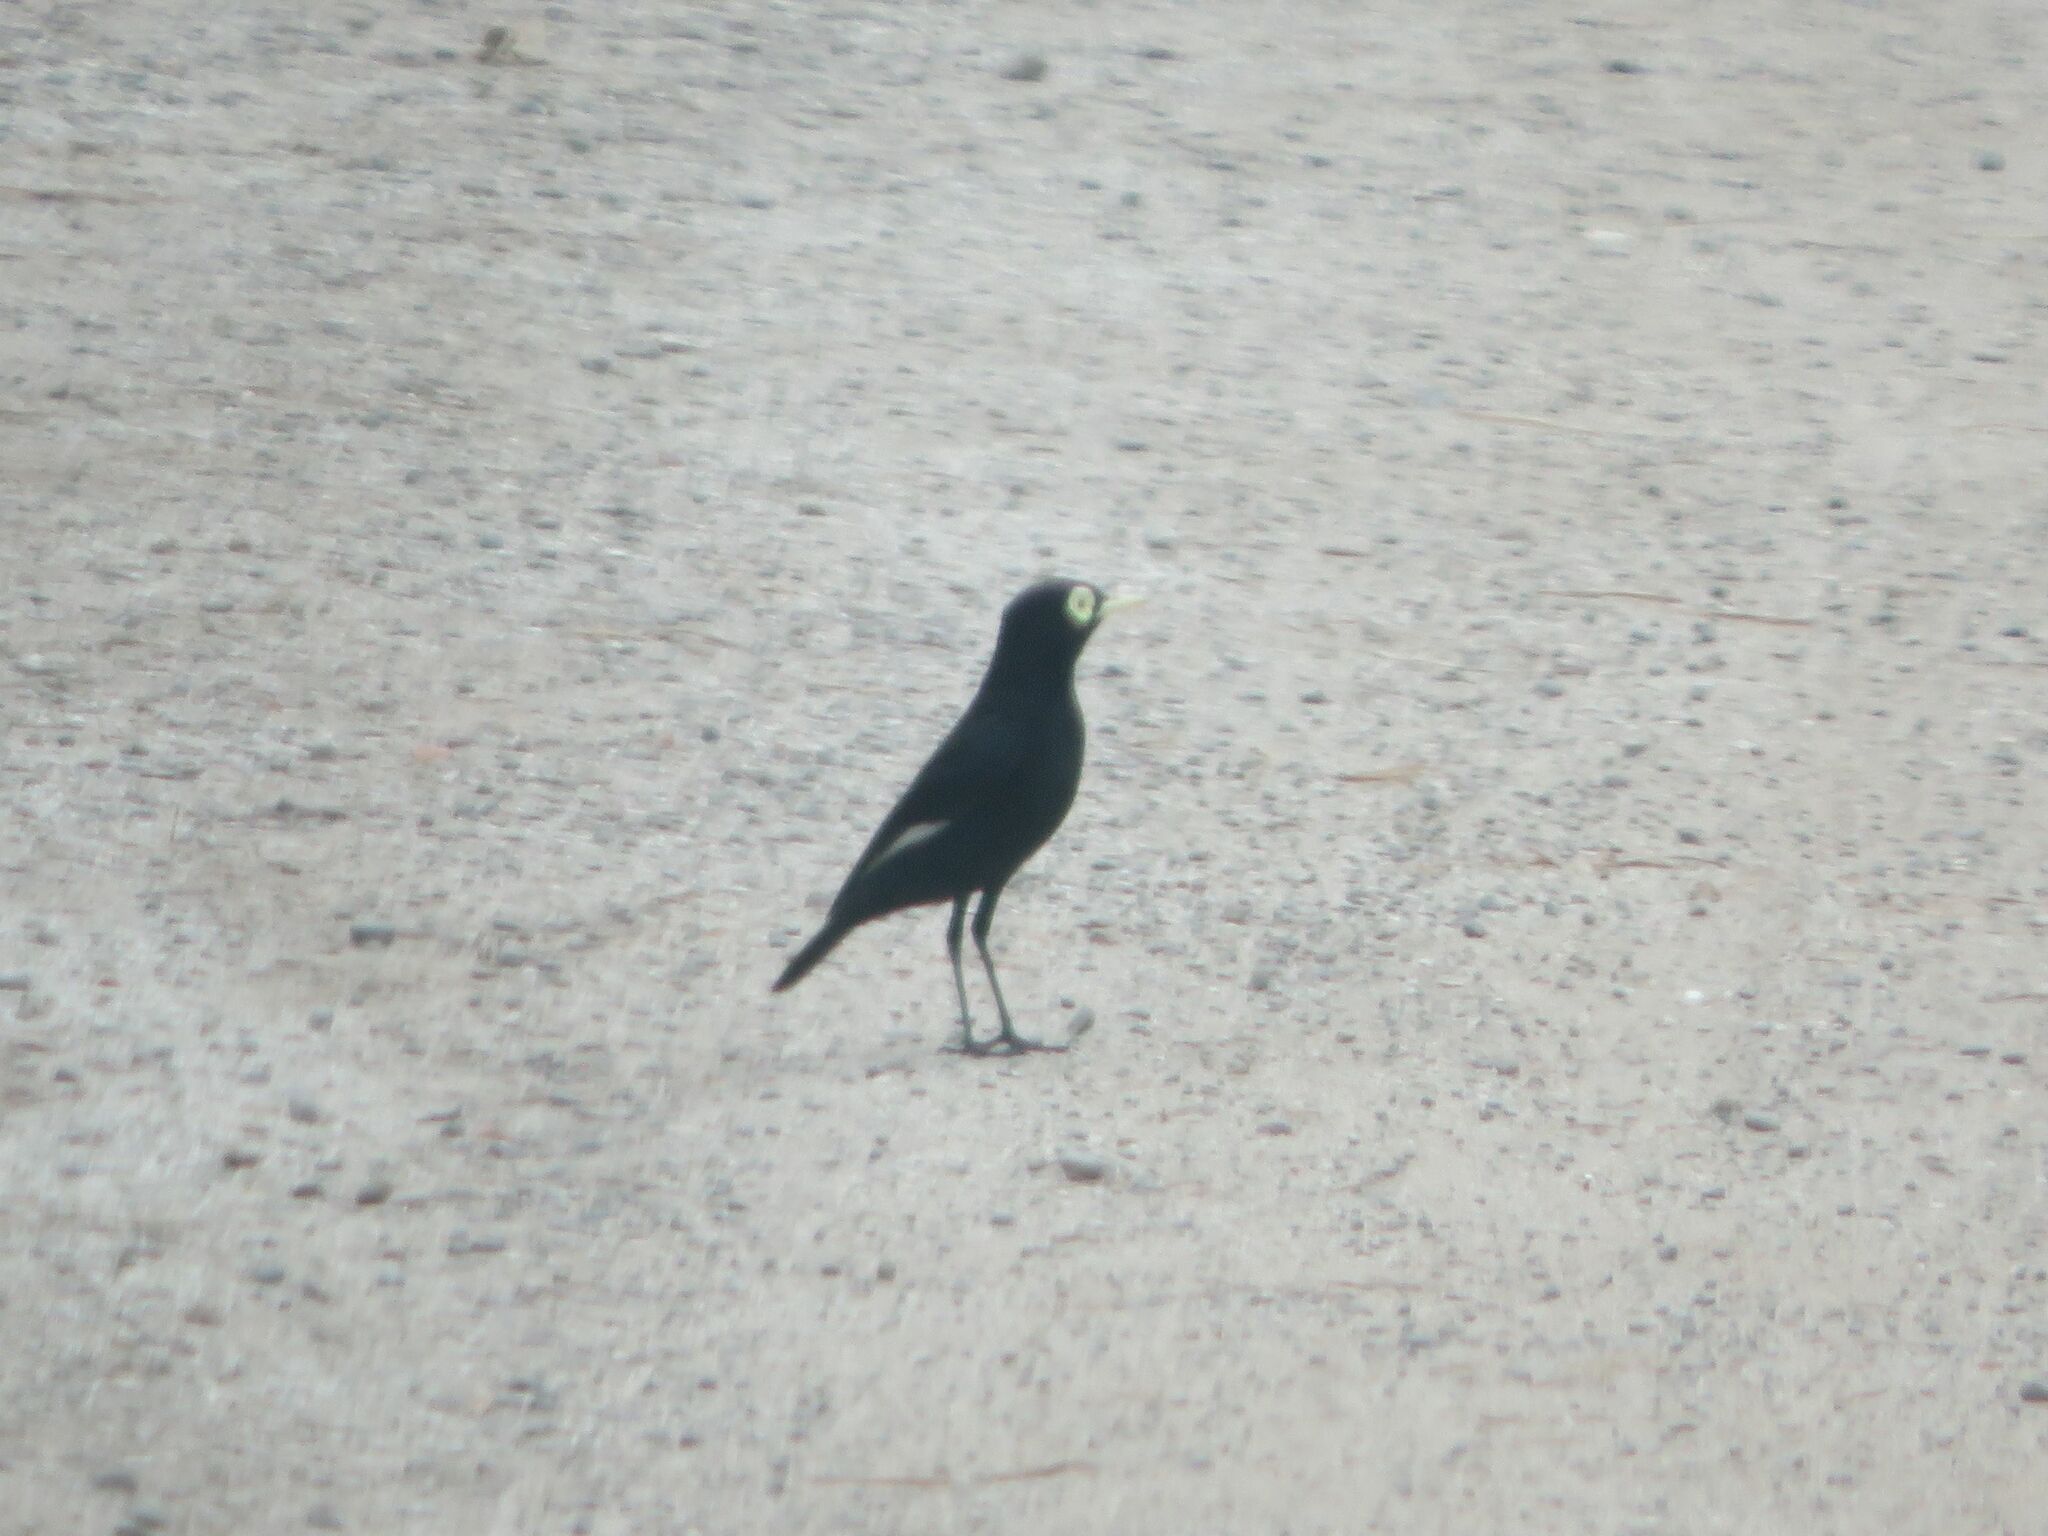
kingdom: Animalia
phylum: Chordata
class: Aves
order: Passeriformes
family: Tyrannidae
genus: Hymenops
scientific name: Hymenops perspicillatus
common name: Spectacled tyrant
